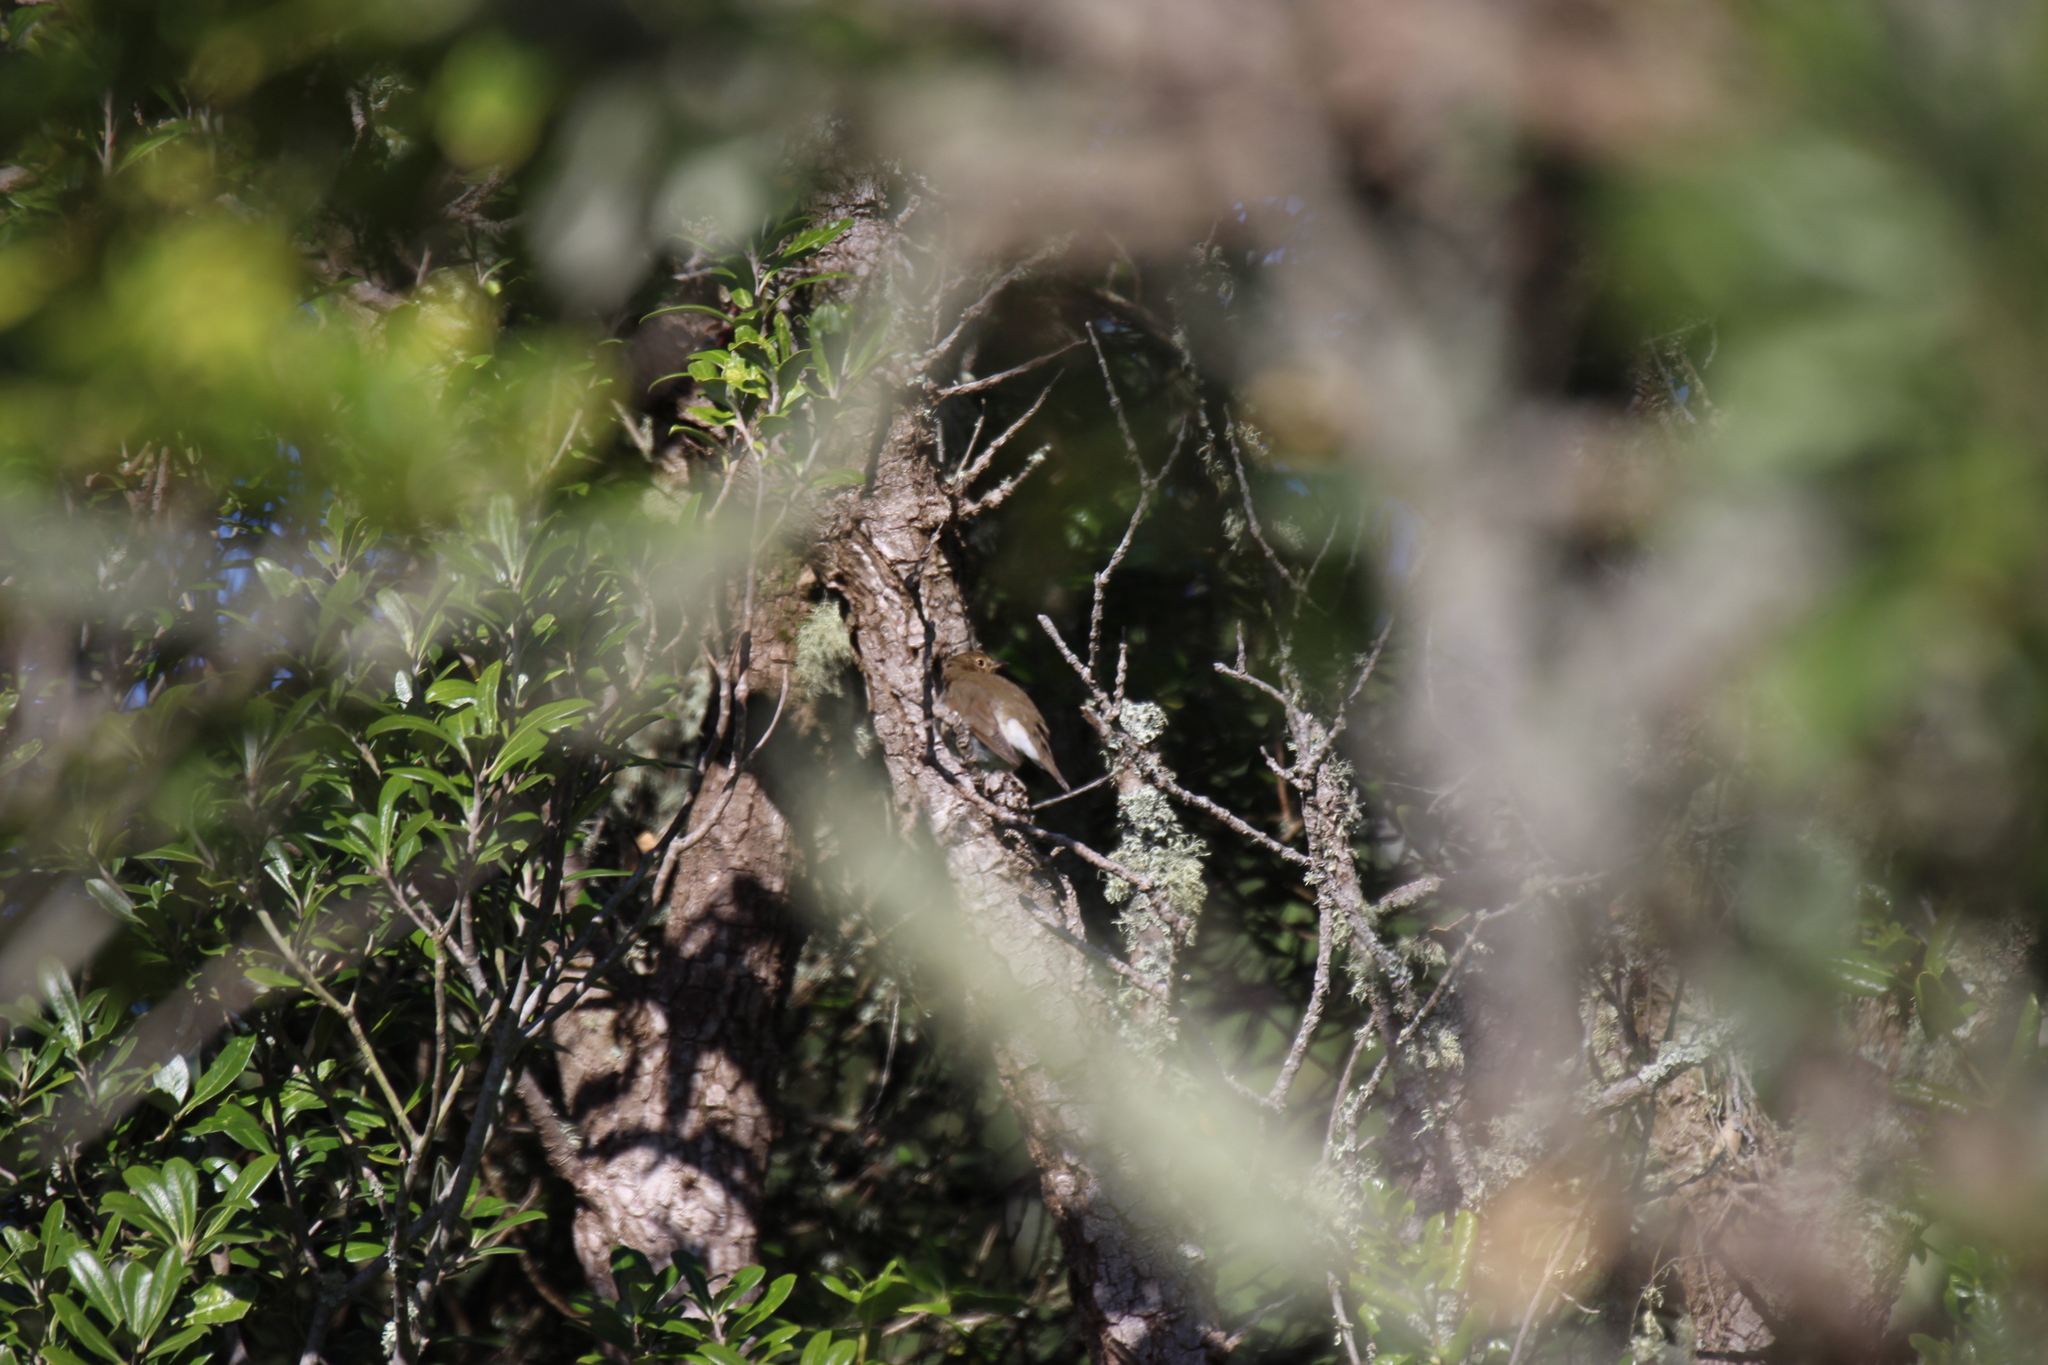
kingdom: Animalia
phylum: Chordata
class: Aves
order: Passeriformes
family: Turdidae
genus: Catharus
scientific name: Catharus ustulatus
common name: Swainson's thrush
